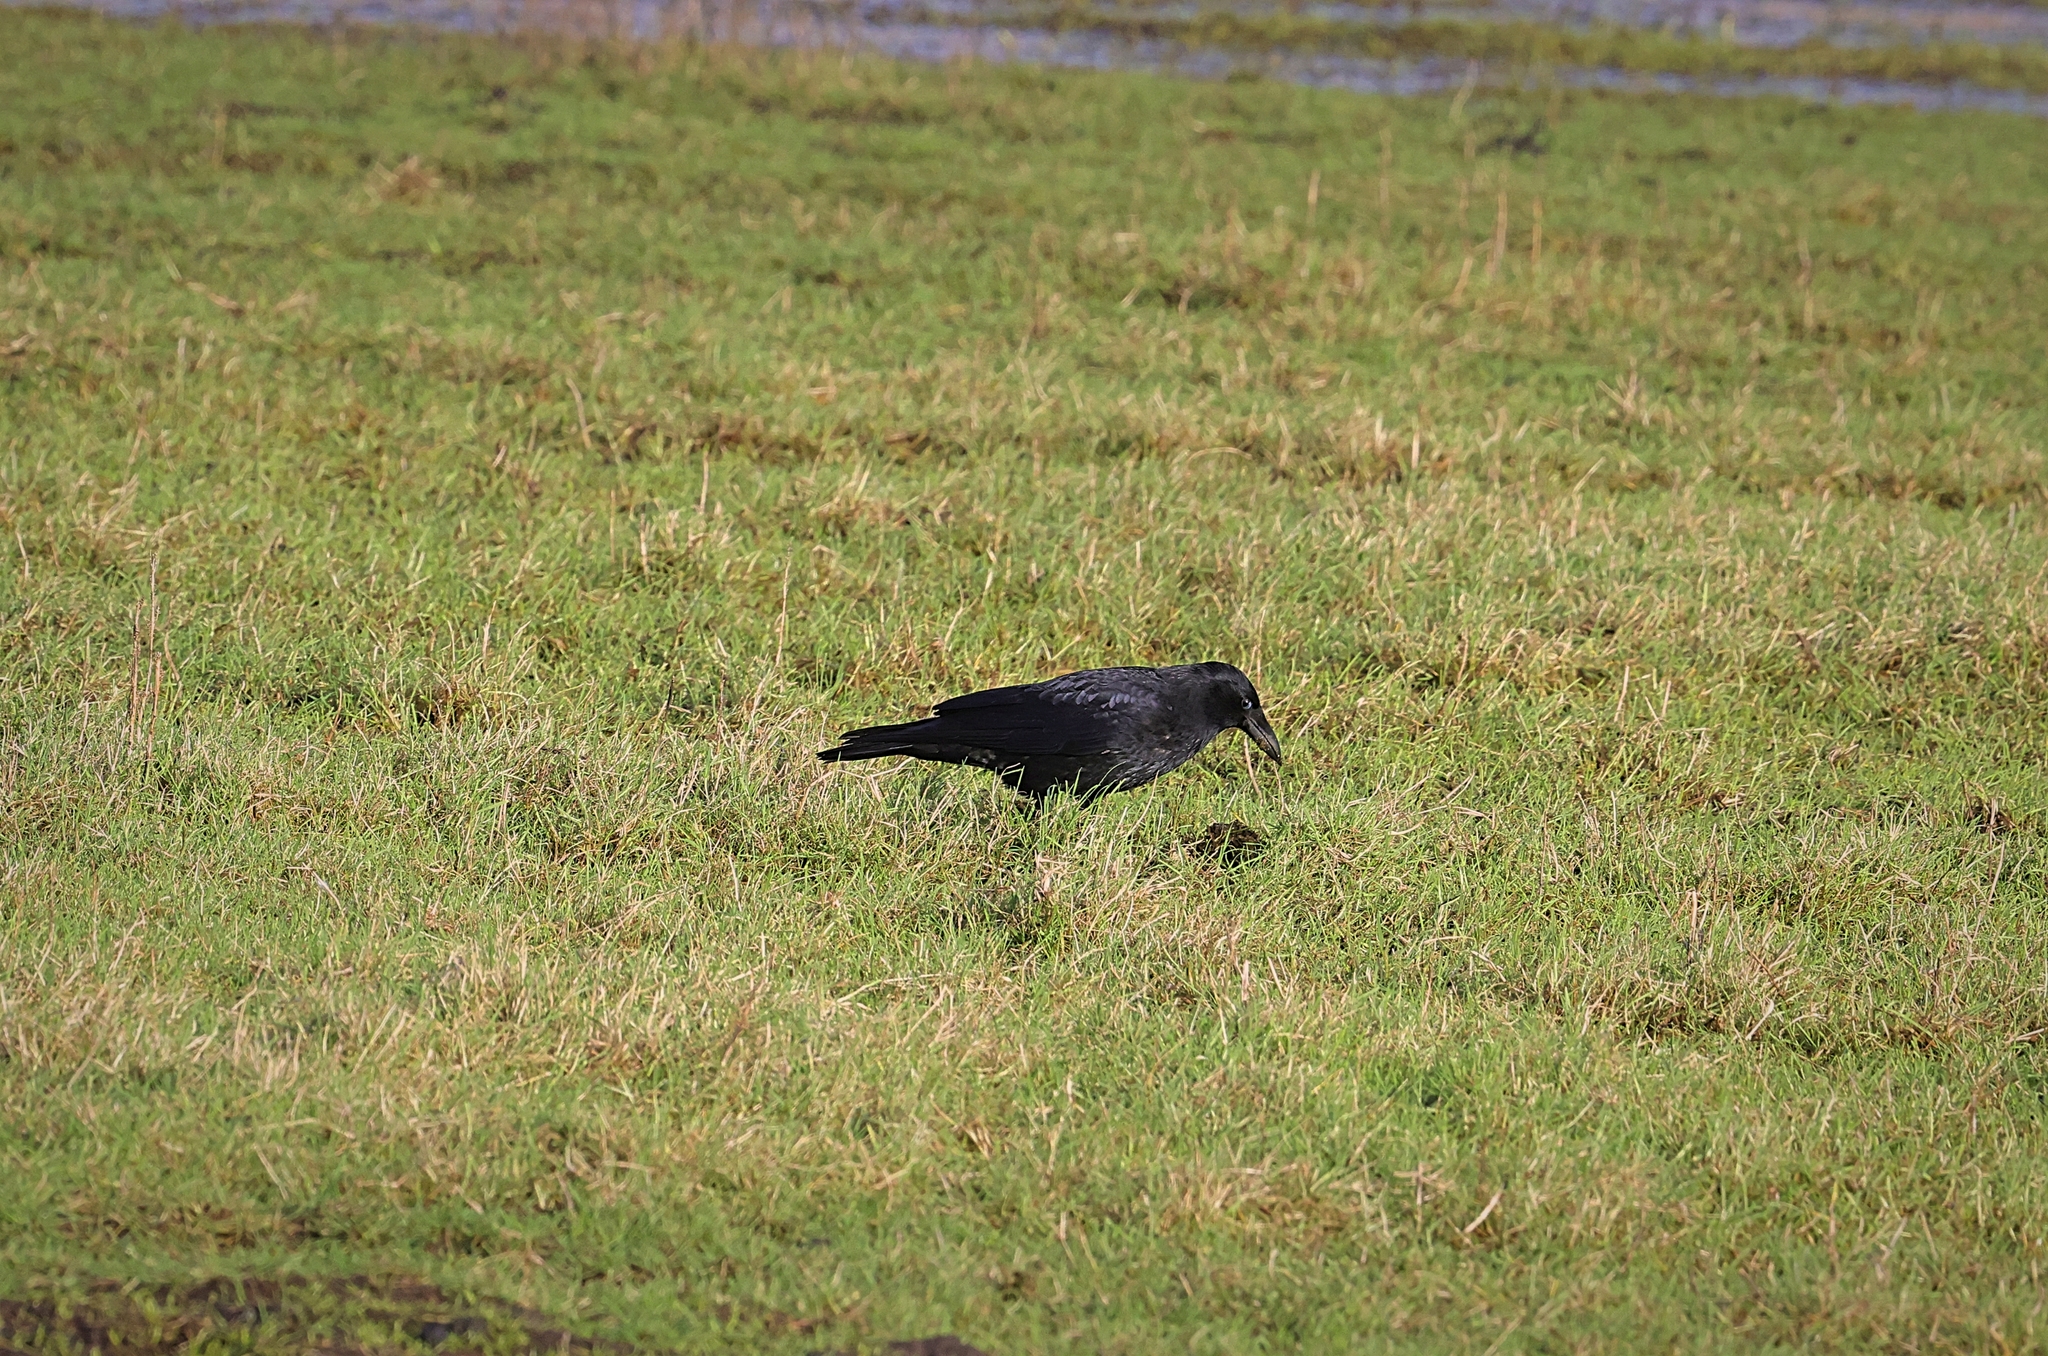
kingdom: Animalia
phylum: Chordata
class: Aves
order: Passeriformes
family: Corvidae
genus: Corvus
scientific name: Corvus corone
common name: Carrion crow
